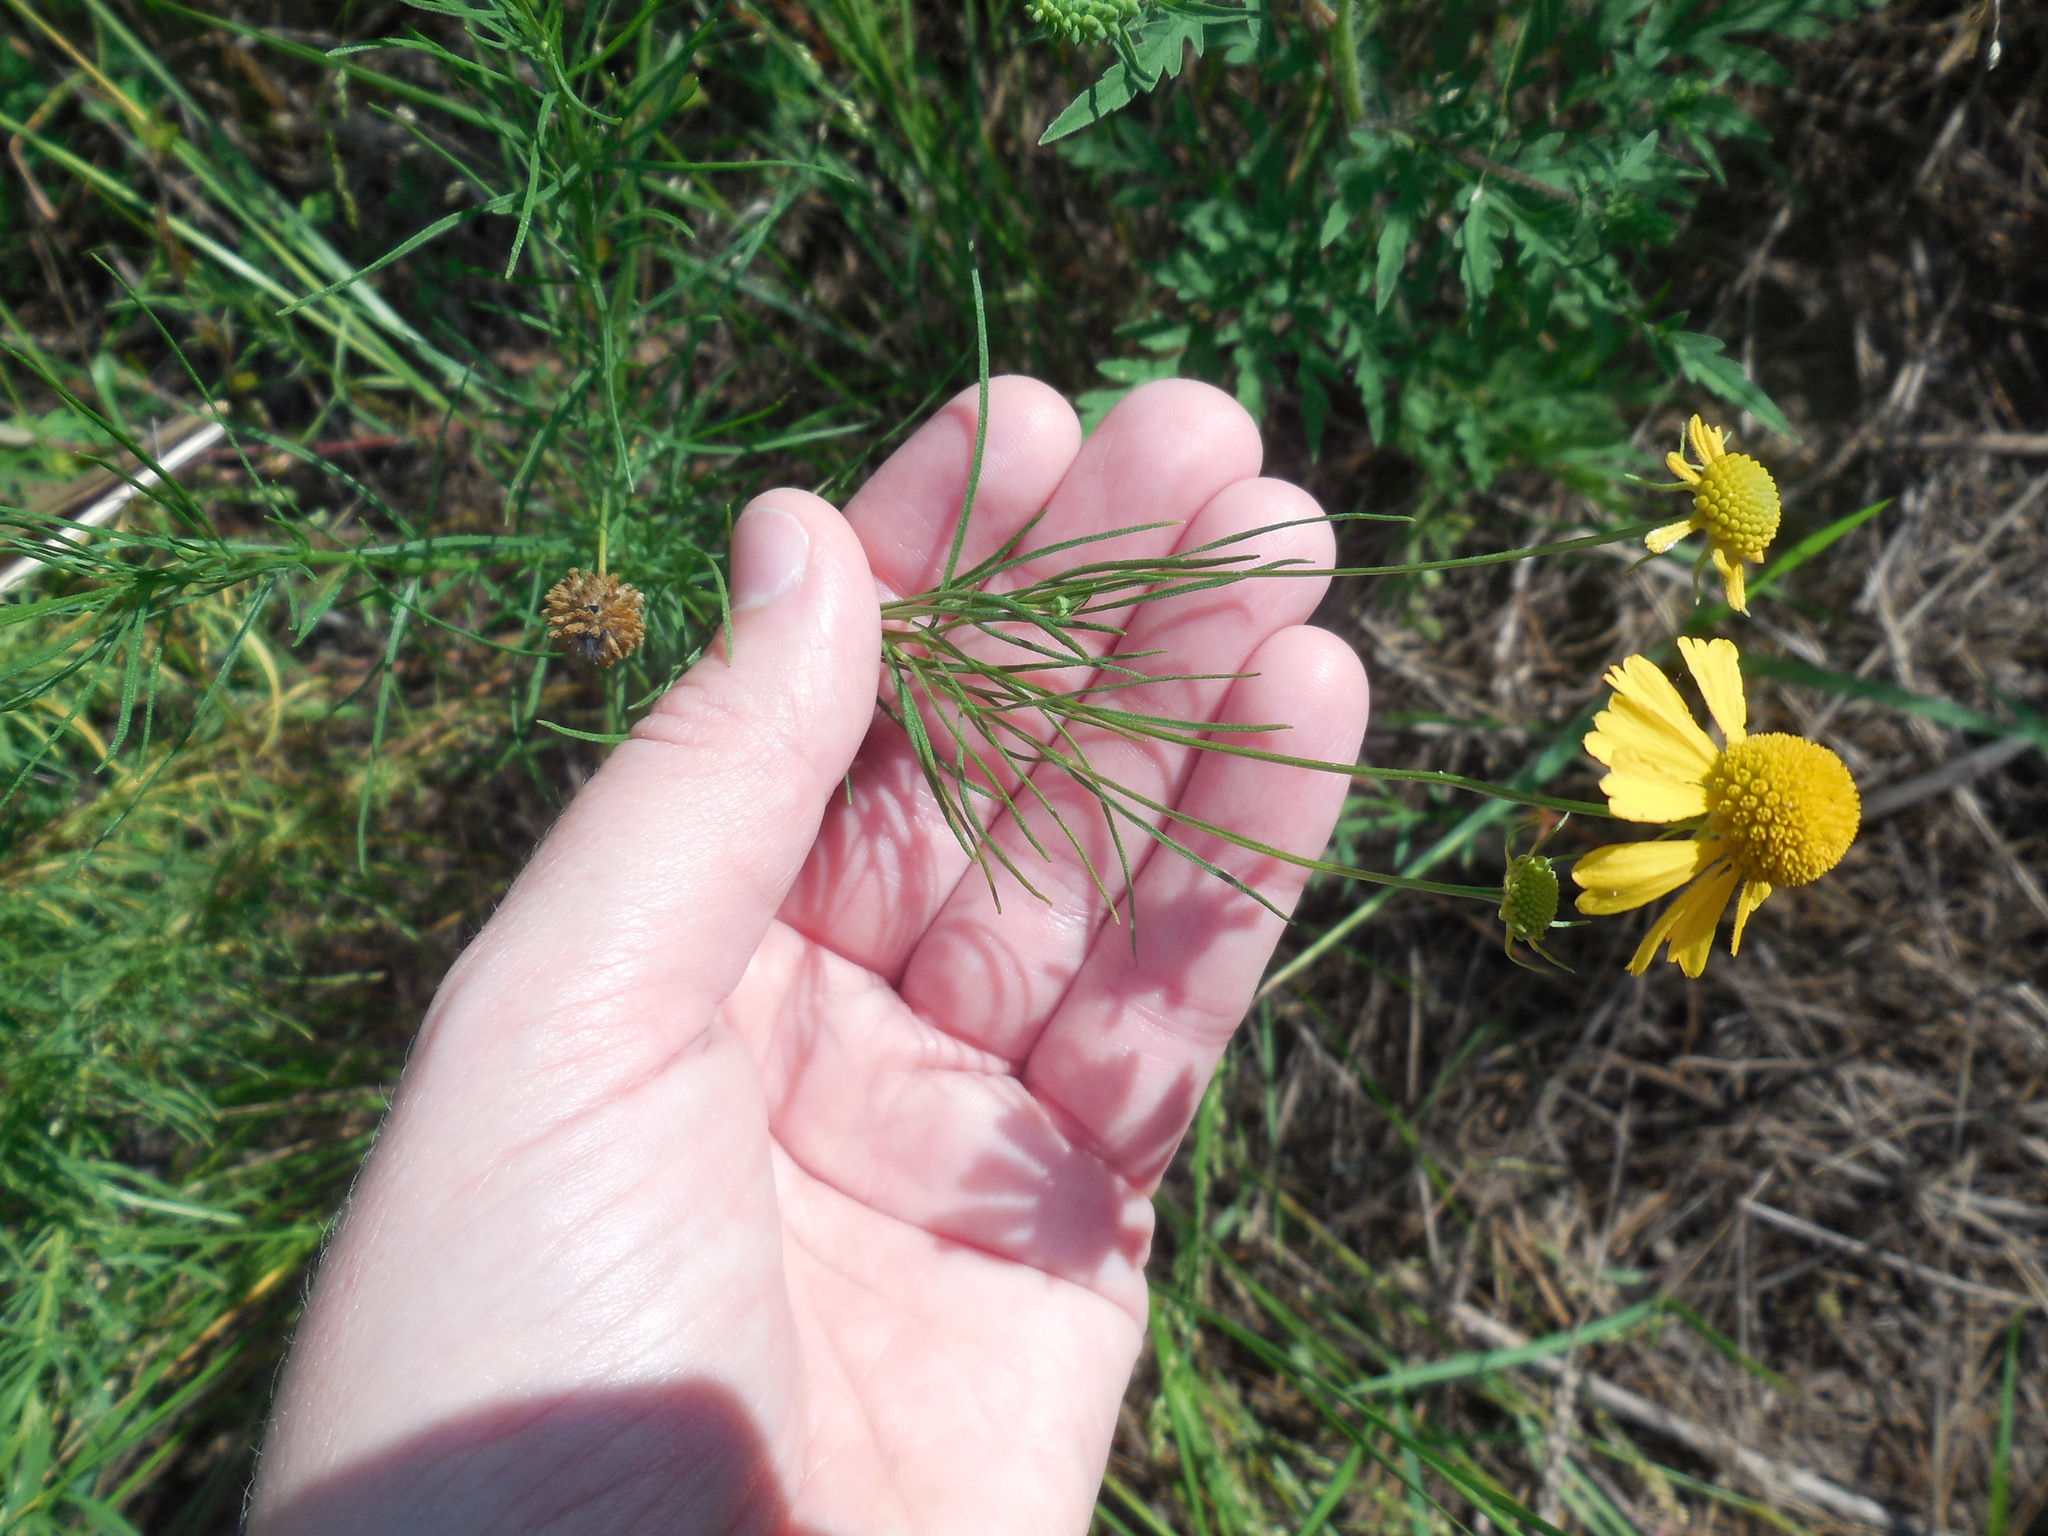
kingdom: Plantae
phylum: Tracheophyta
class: Magnoliopsida
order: Asterales
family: Asteraceae
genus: Helenium
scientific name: Helenium amarum
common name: Bitter sneezeweed
